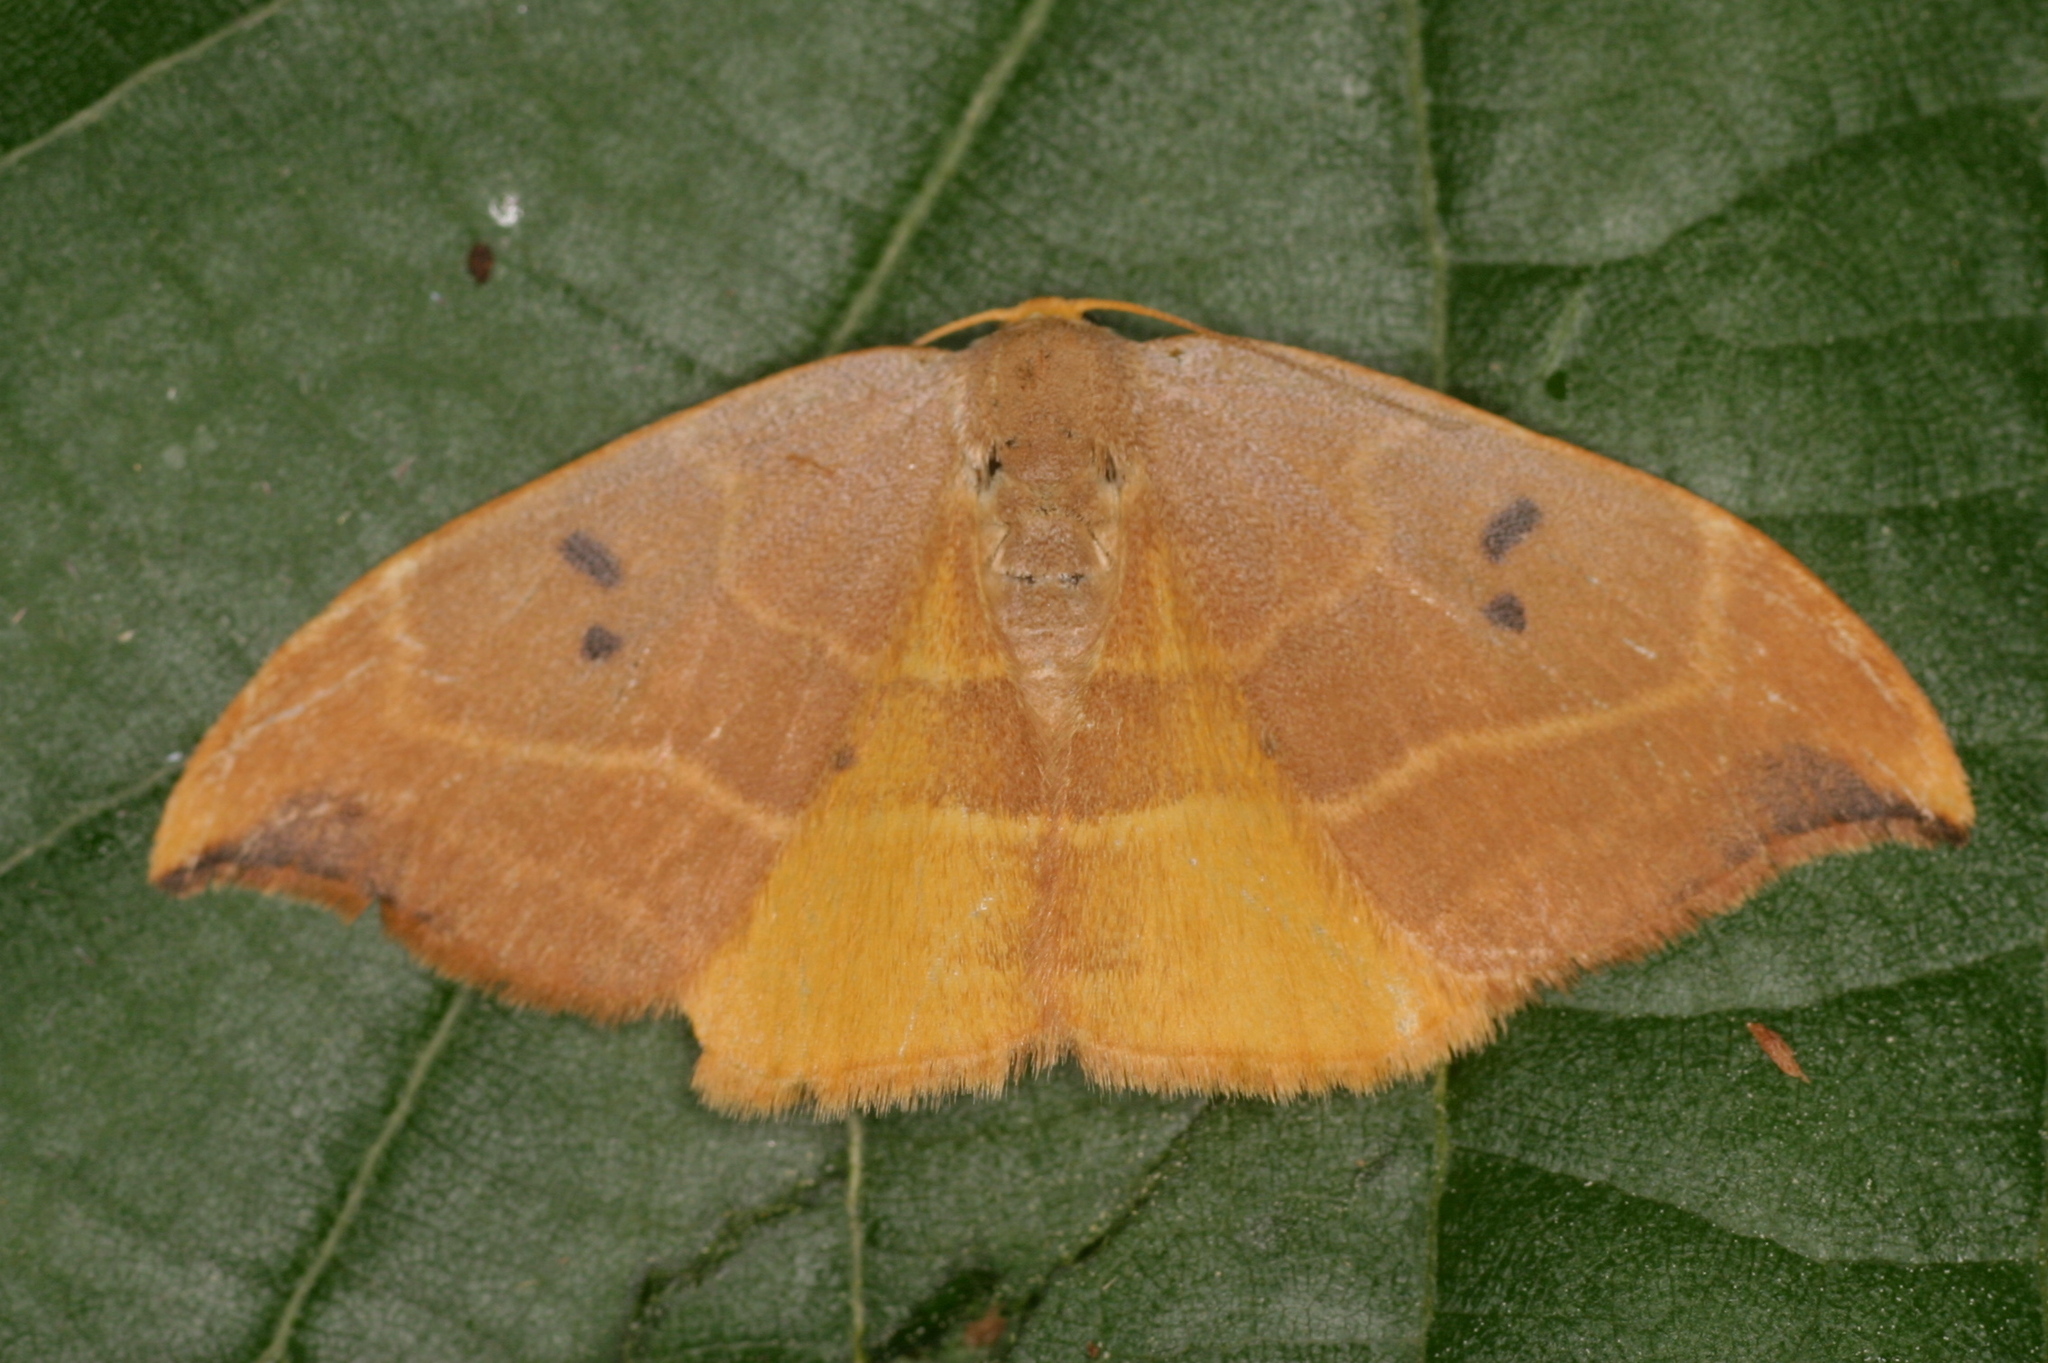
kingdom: Animalia
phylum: Arthropoda
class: Insecta
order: Lepidoptera
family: Drepanidae
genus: Watsonalla
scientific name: Watsonalla binaria
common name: Oak hook-tip
